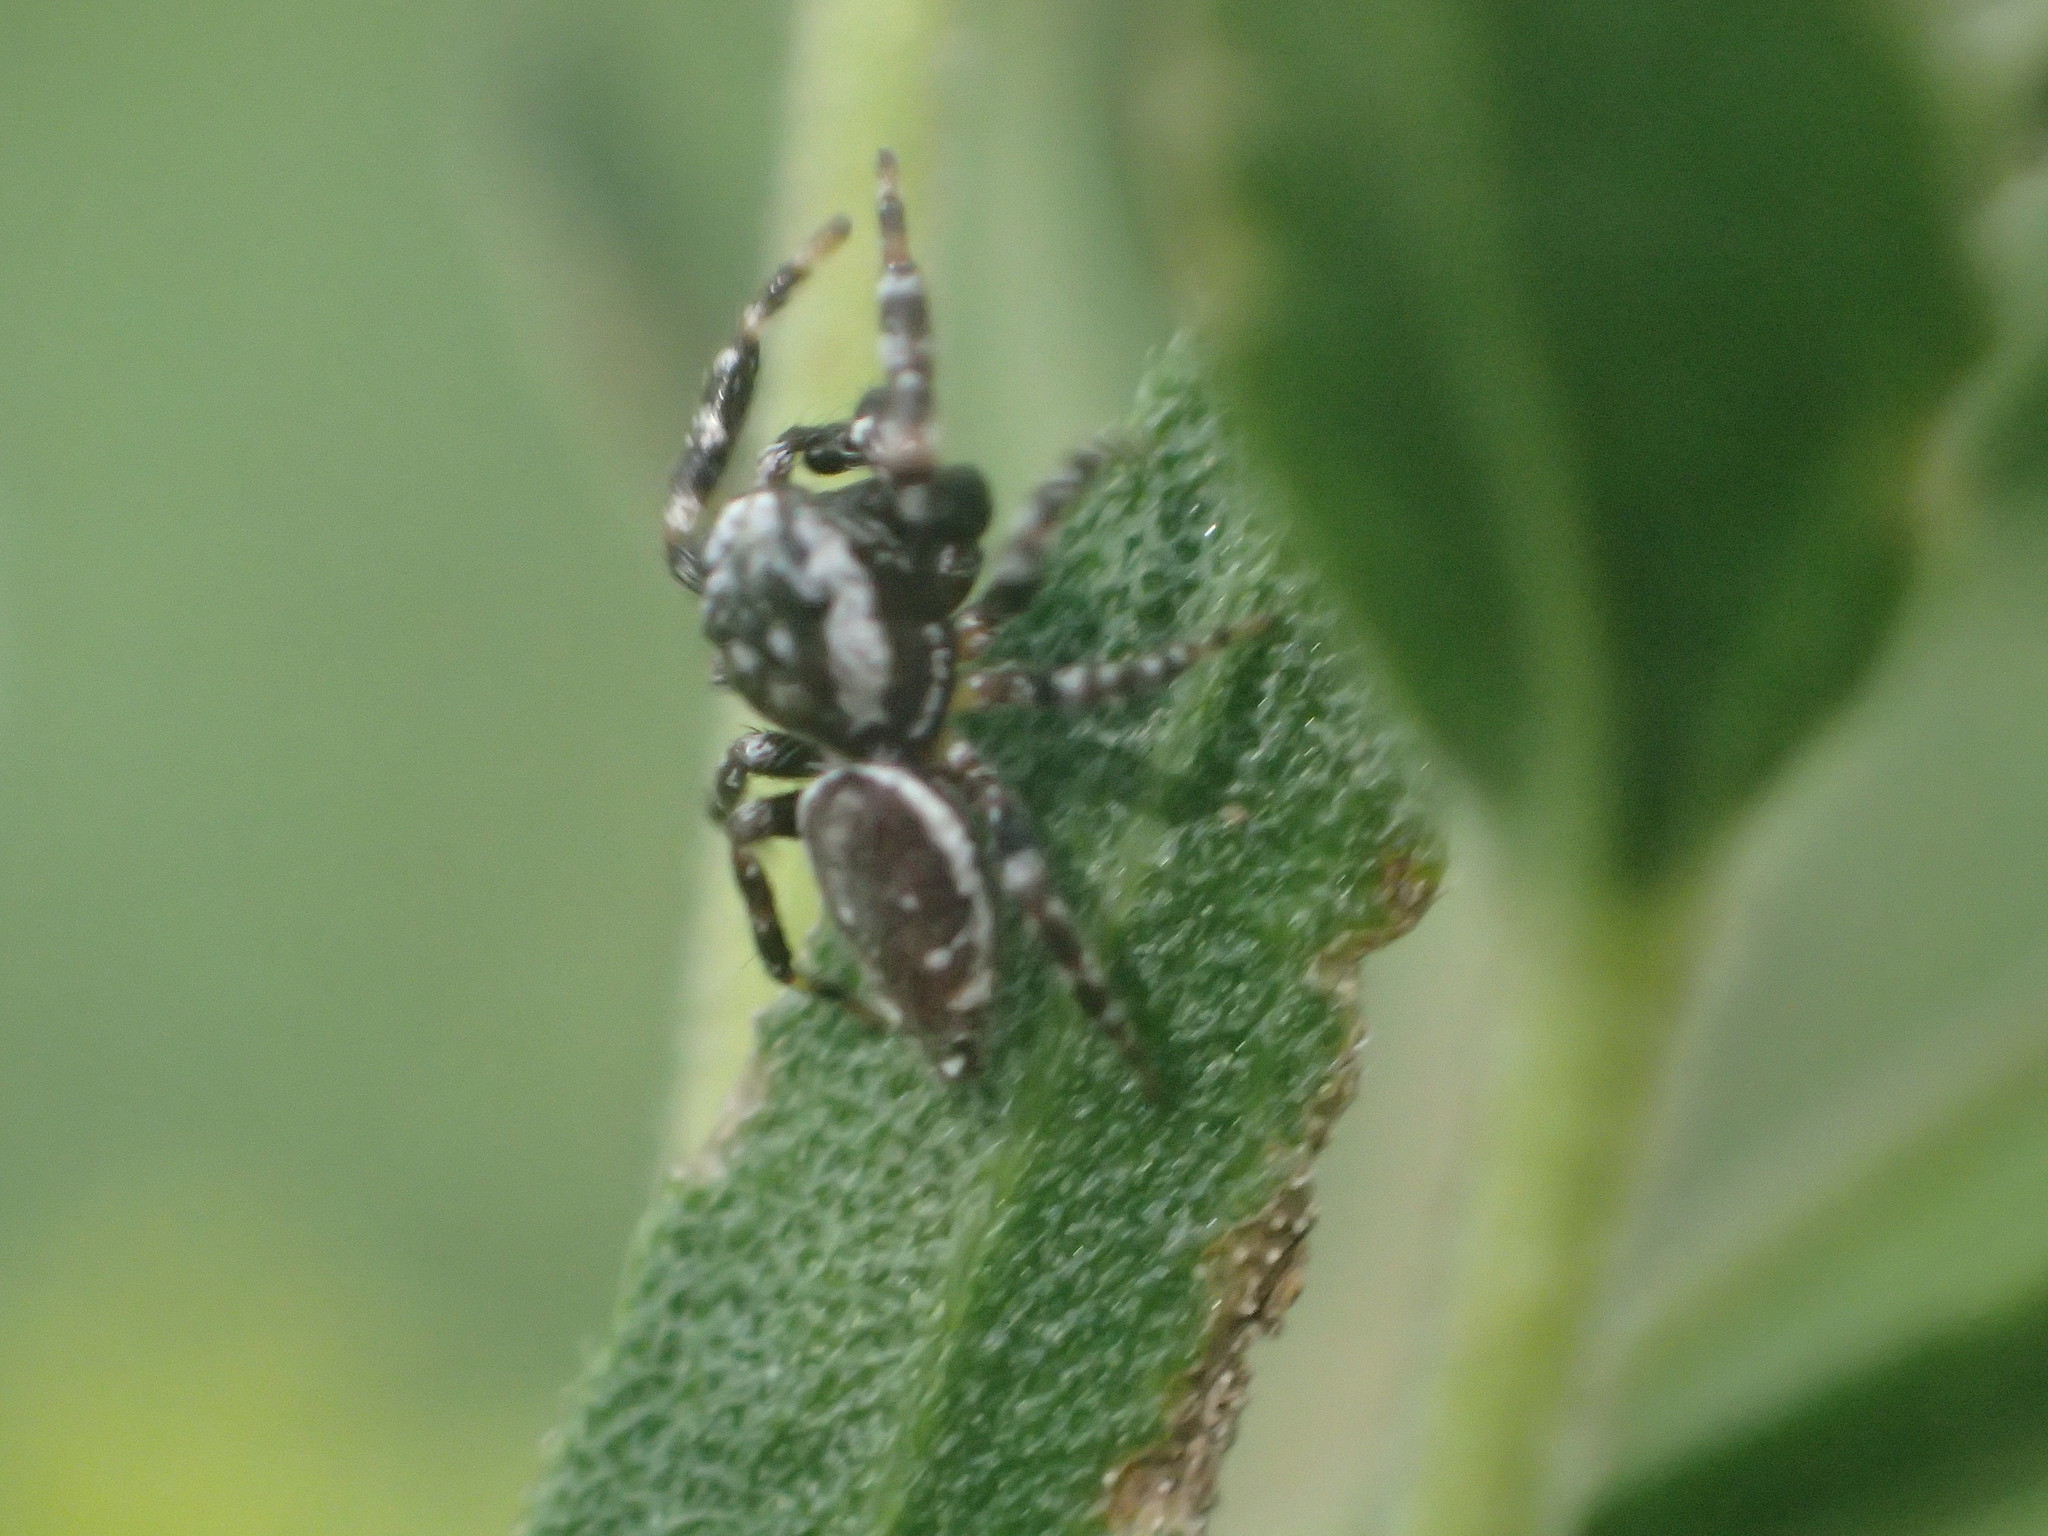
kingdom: Animalia
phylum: Arthropoda
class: Arachnida
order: Araneae
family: Salticidae
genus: Pelegrina
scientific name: Pelegrina galathea
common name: Jumping spiders
